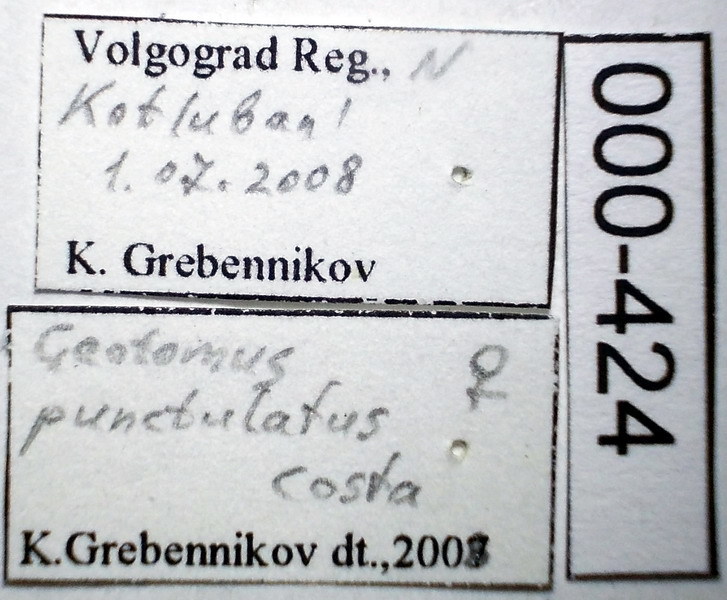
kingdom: Animalia
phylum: Arthropoda
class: Insecta
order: Hemiptera
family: Cydnidae
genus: Legnotus
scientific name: Legnotus picipes
